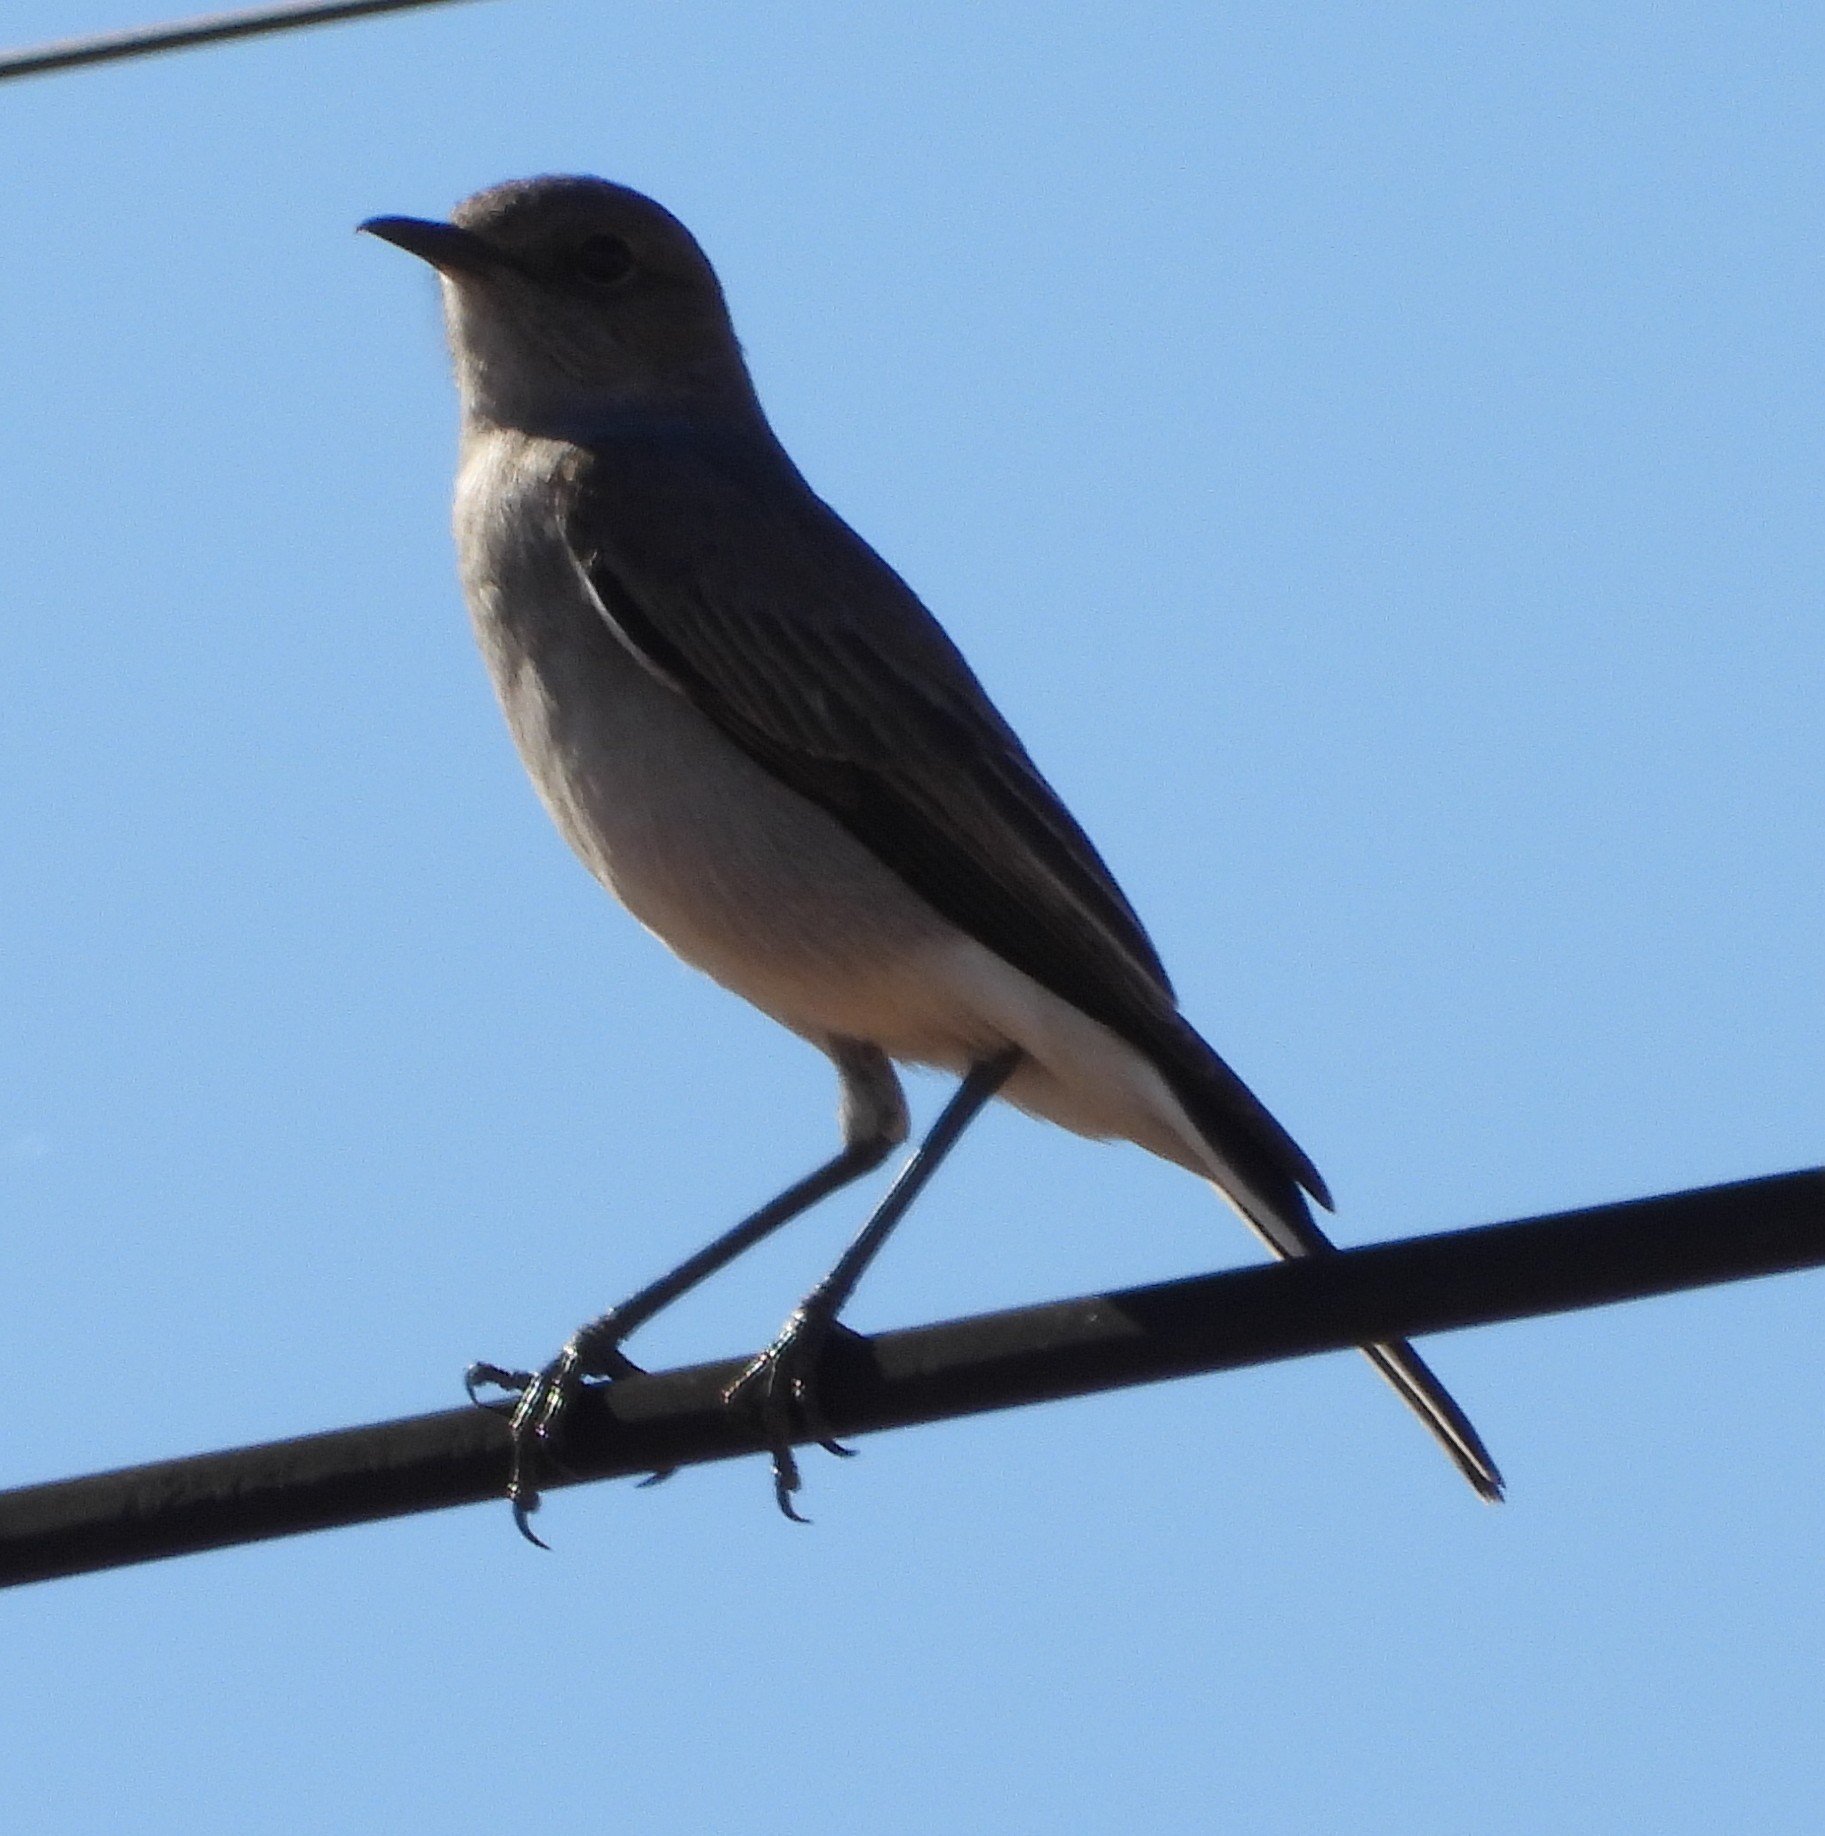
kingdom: Animalia
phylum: Chordata
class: Aves
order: Passeriformes
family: Muscicapidae
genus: Emarginata
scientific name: Emarginata schlegelii
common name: Karoo chat
